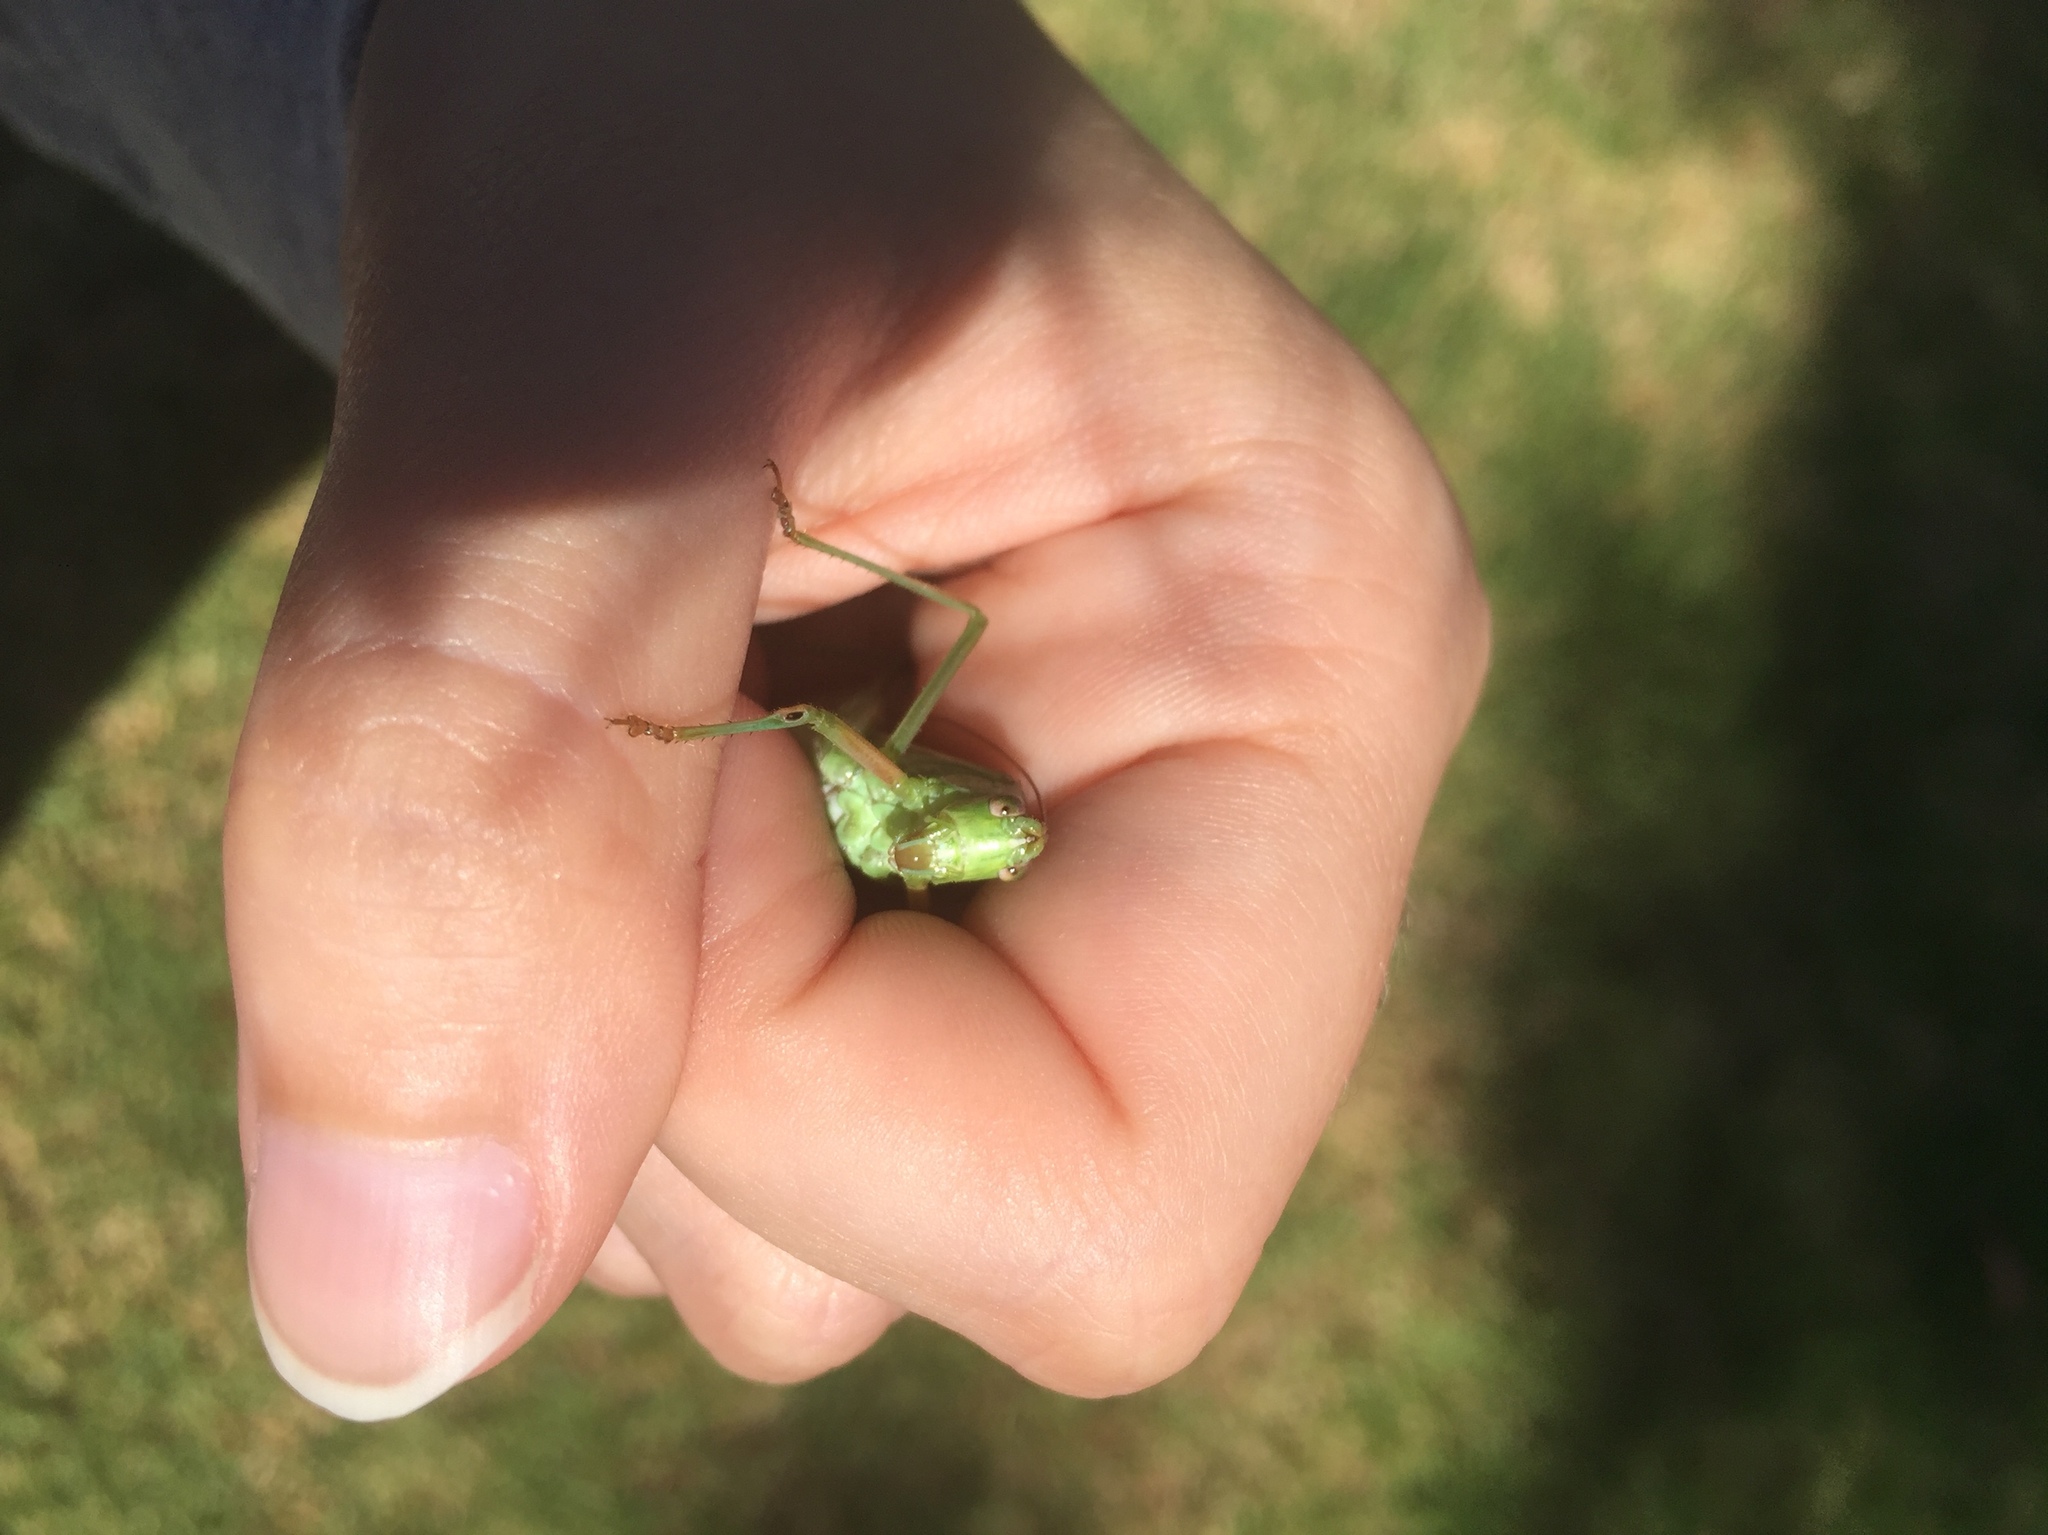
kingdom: Animalia
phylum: Arthropoda
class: Insecta
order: Orthoptera
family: Tettigoniidae
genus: Scudderia
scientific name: Scudderia
